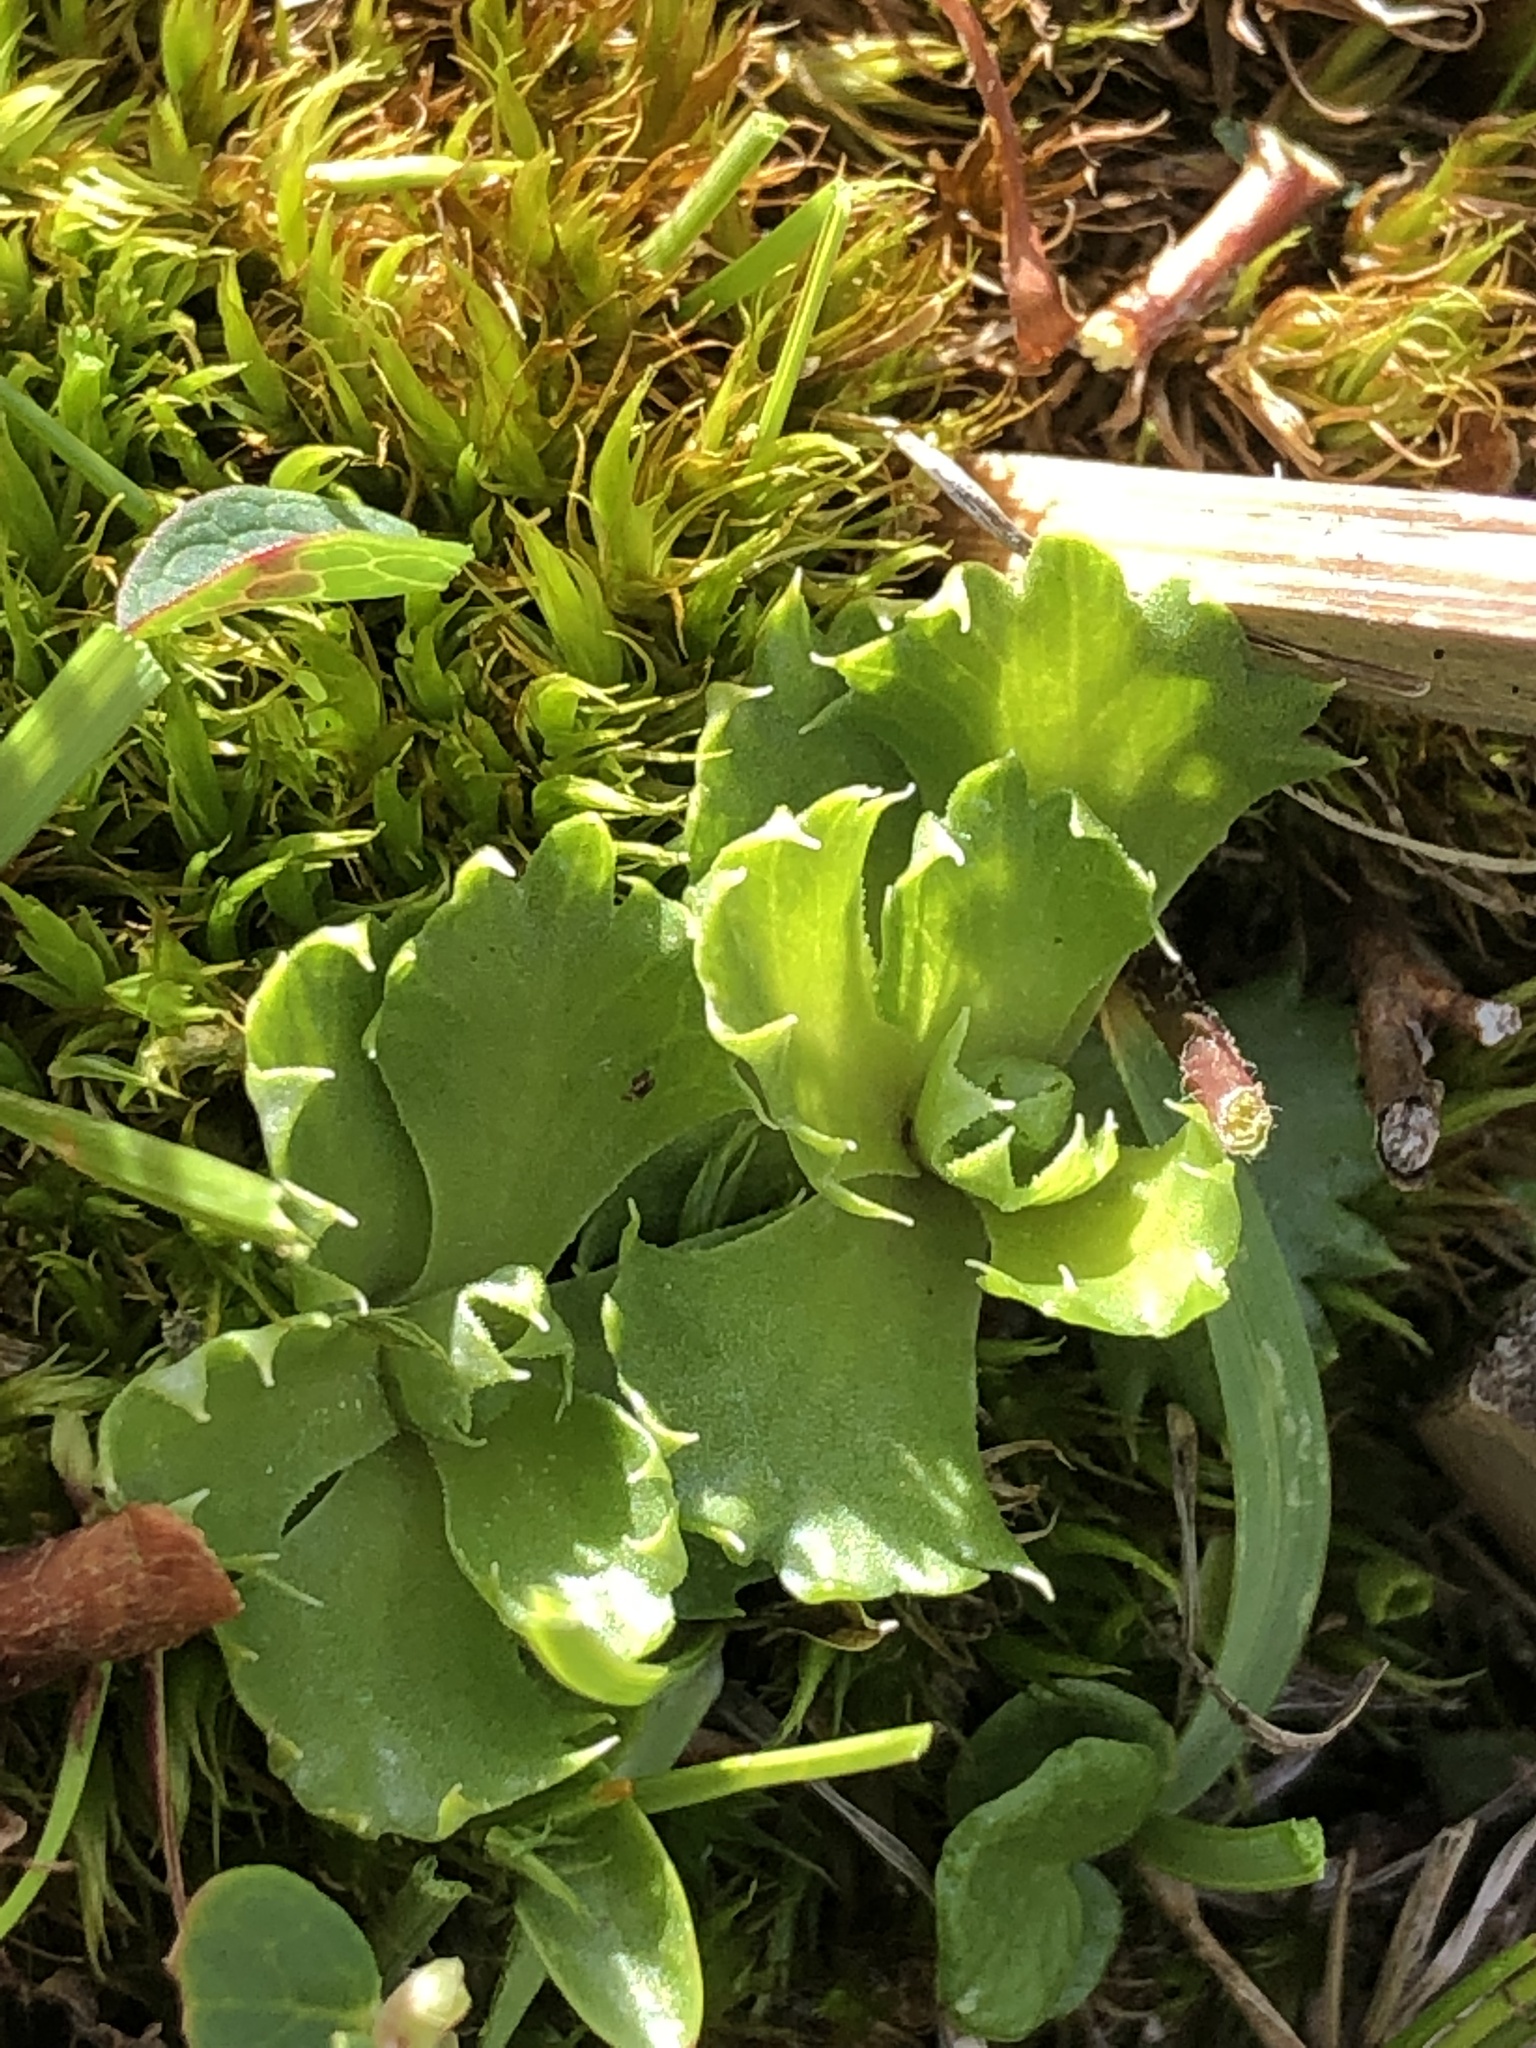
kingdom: Plantae
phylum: Tracheophyta
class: Magnoliopsida
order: Ericales
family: Primulaceae
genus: Primula
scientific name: Primula minima
